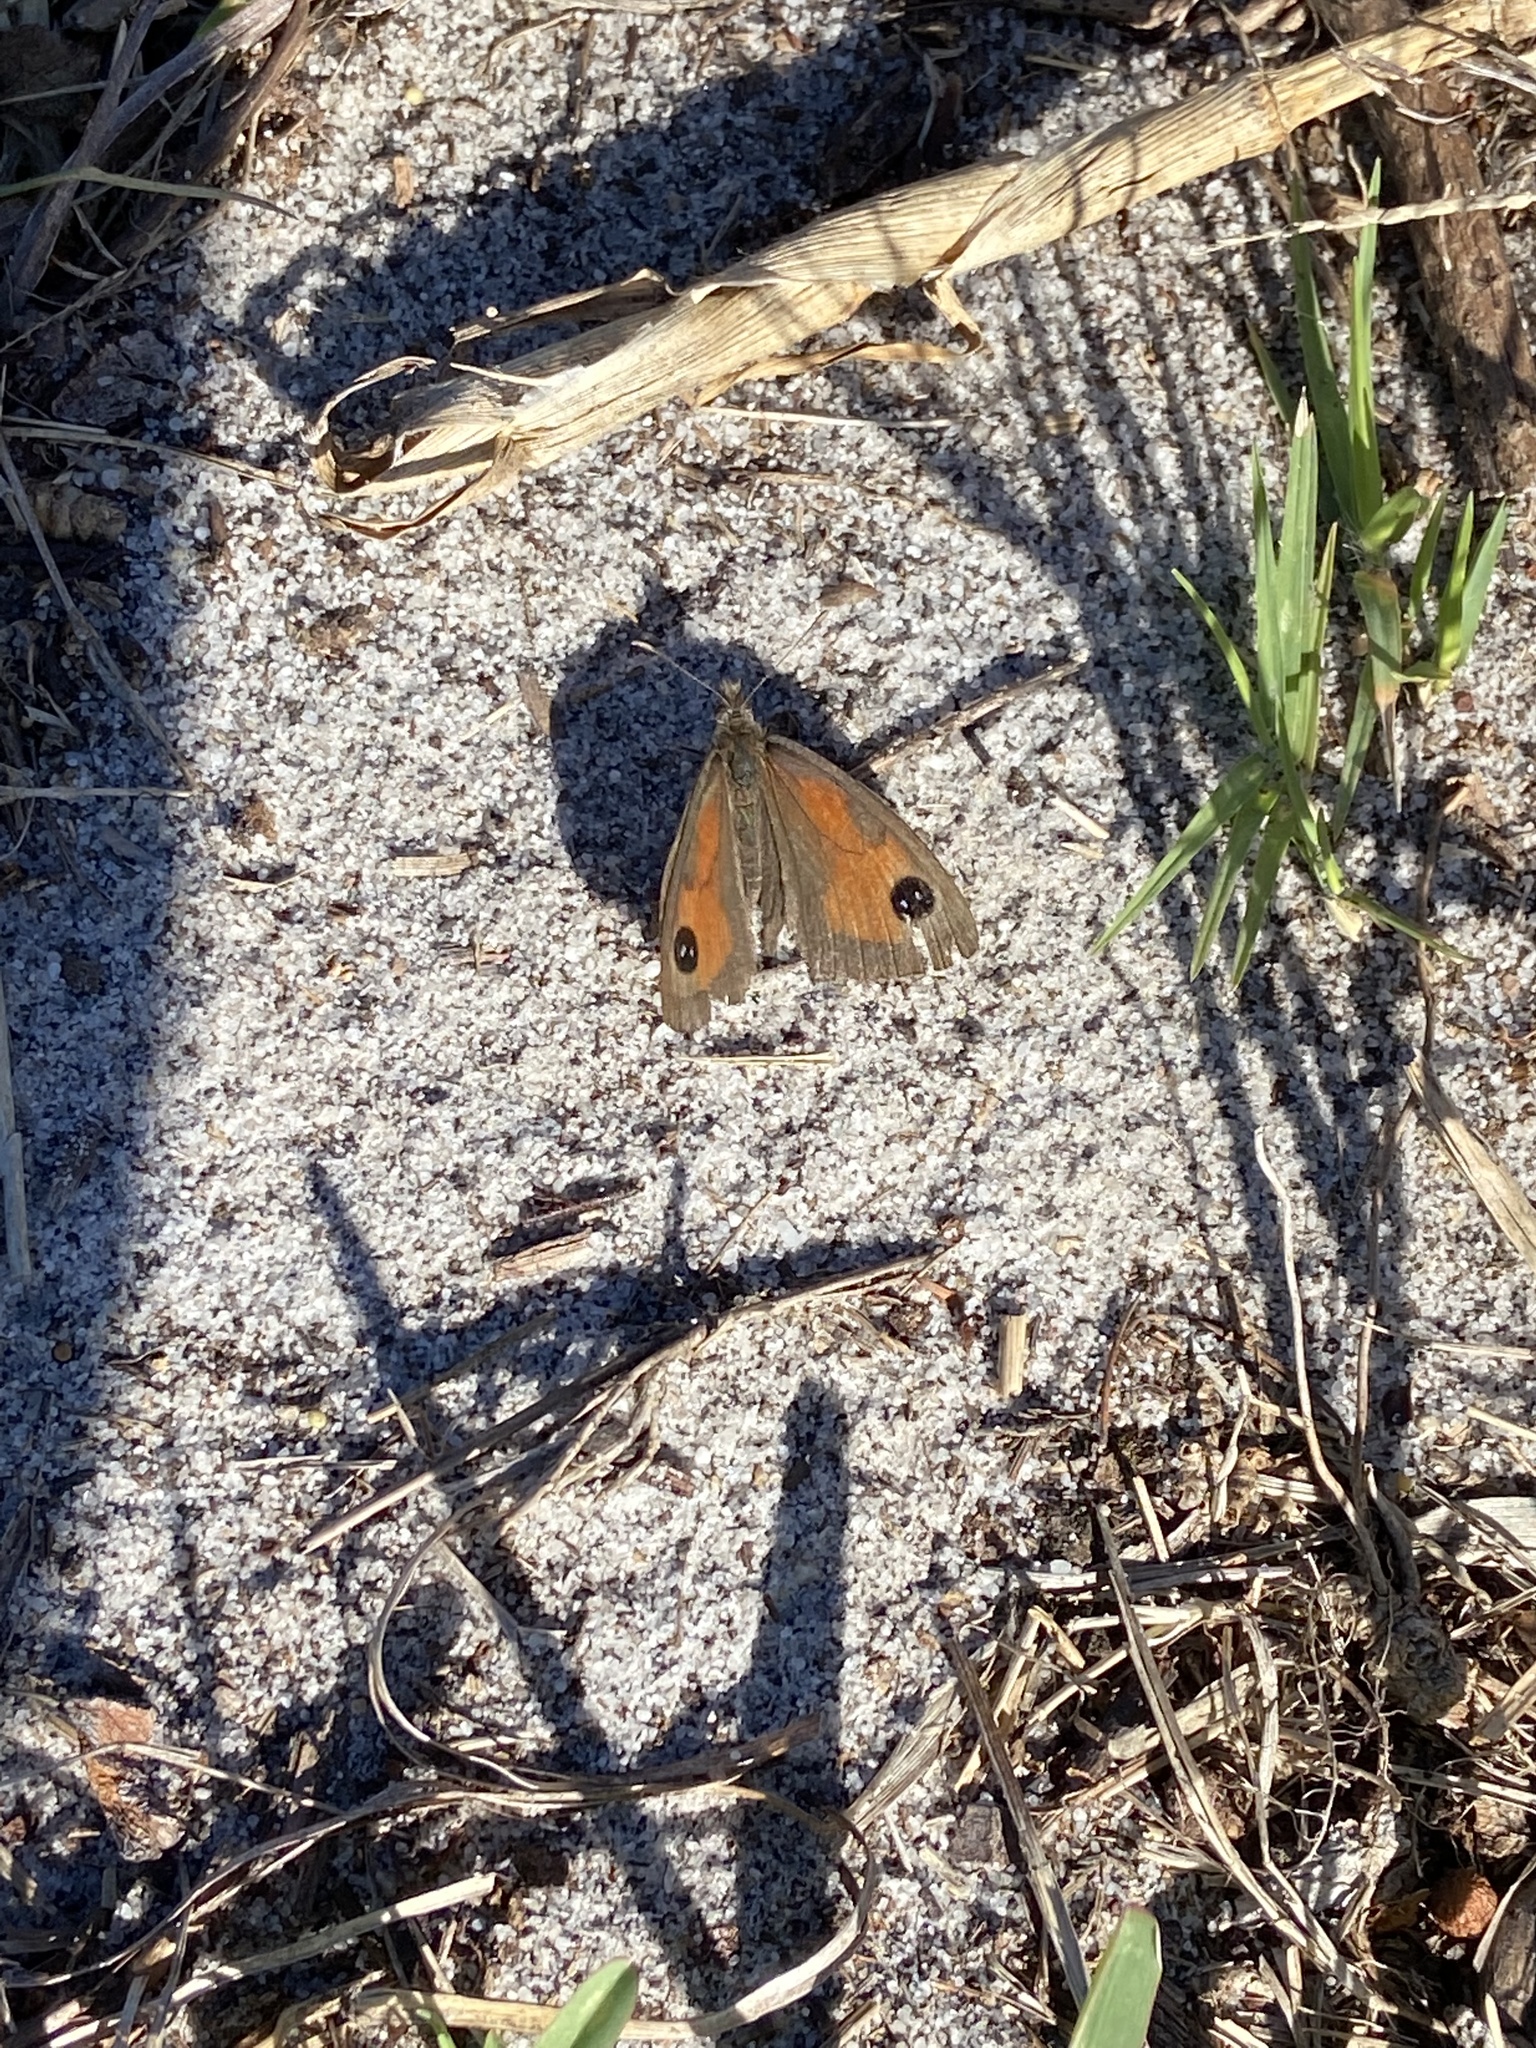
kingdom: Animalia
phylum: Arthropoda
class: Insecta
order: Lepidoptera
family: Nymphalidae
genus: Pseudonympha
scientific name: Pseudonympha magus
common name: Silver-bottom brown
